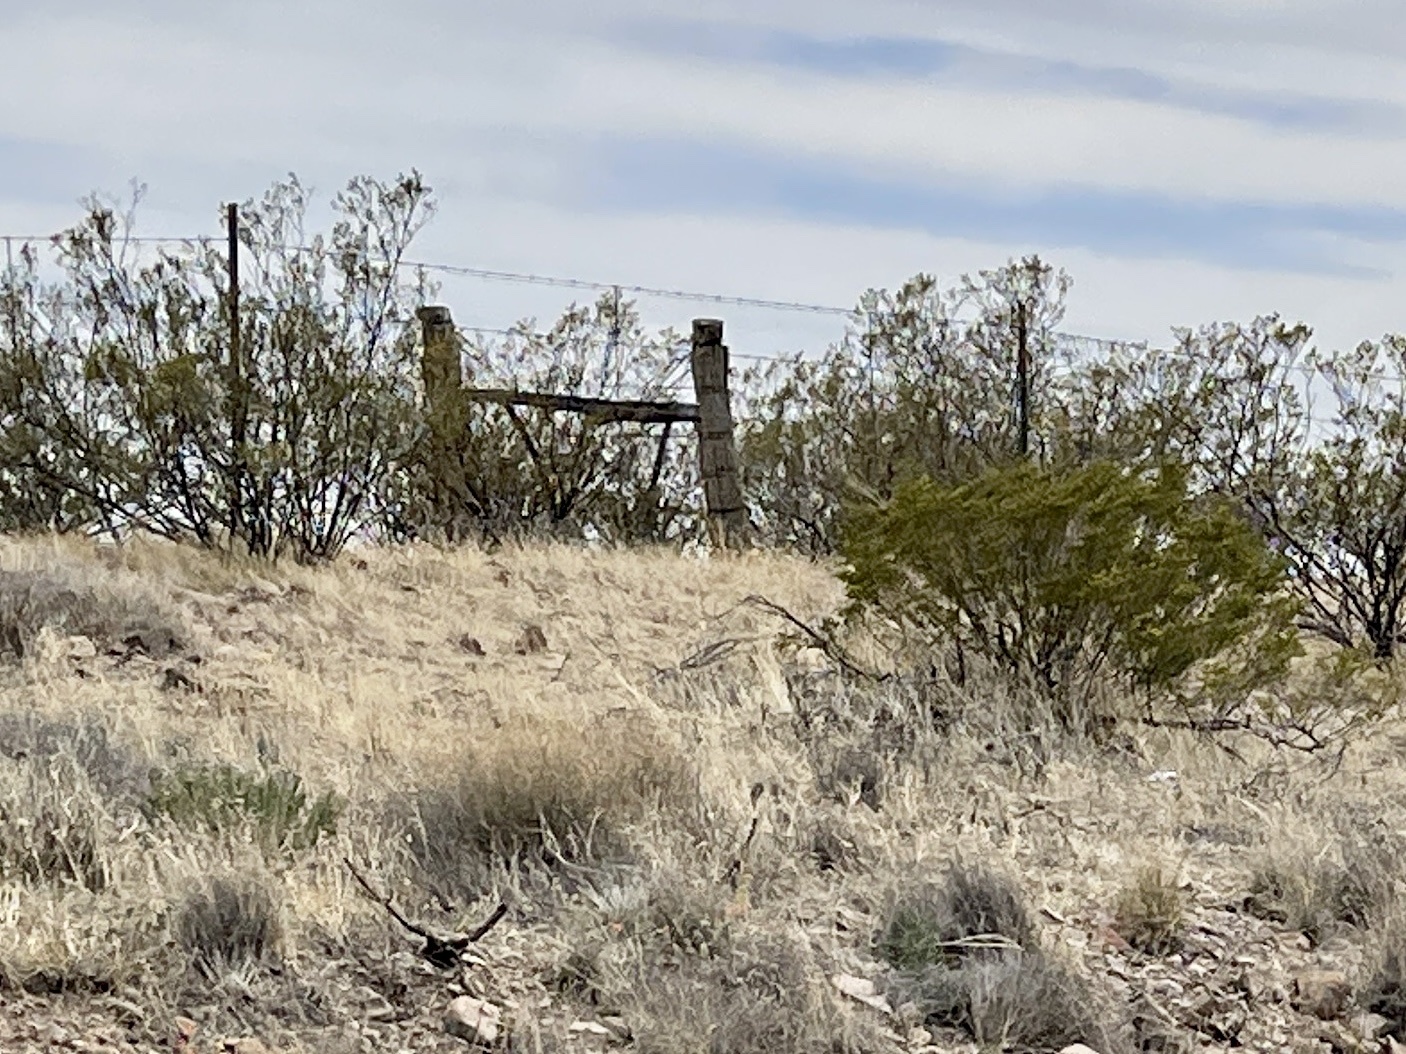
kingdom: Plantae
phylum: Tracheophyta
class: Magnoliopsida
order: Zygophyllales
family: Zygophyllaceae
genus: Larrea
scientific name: Larrea tridentata
